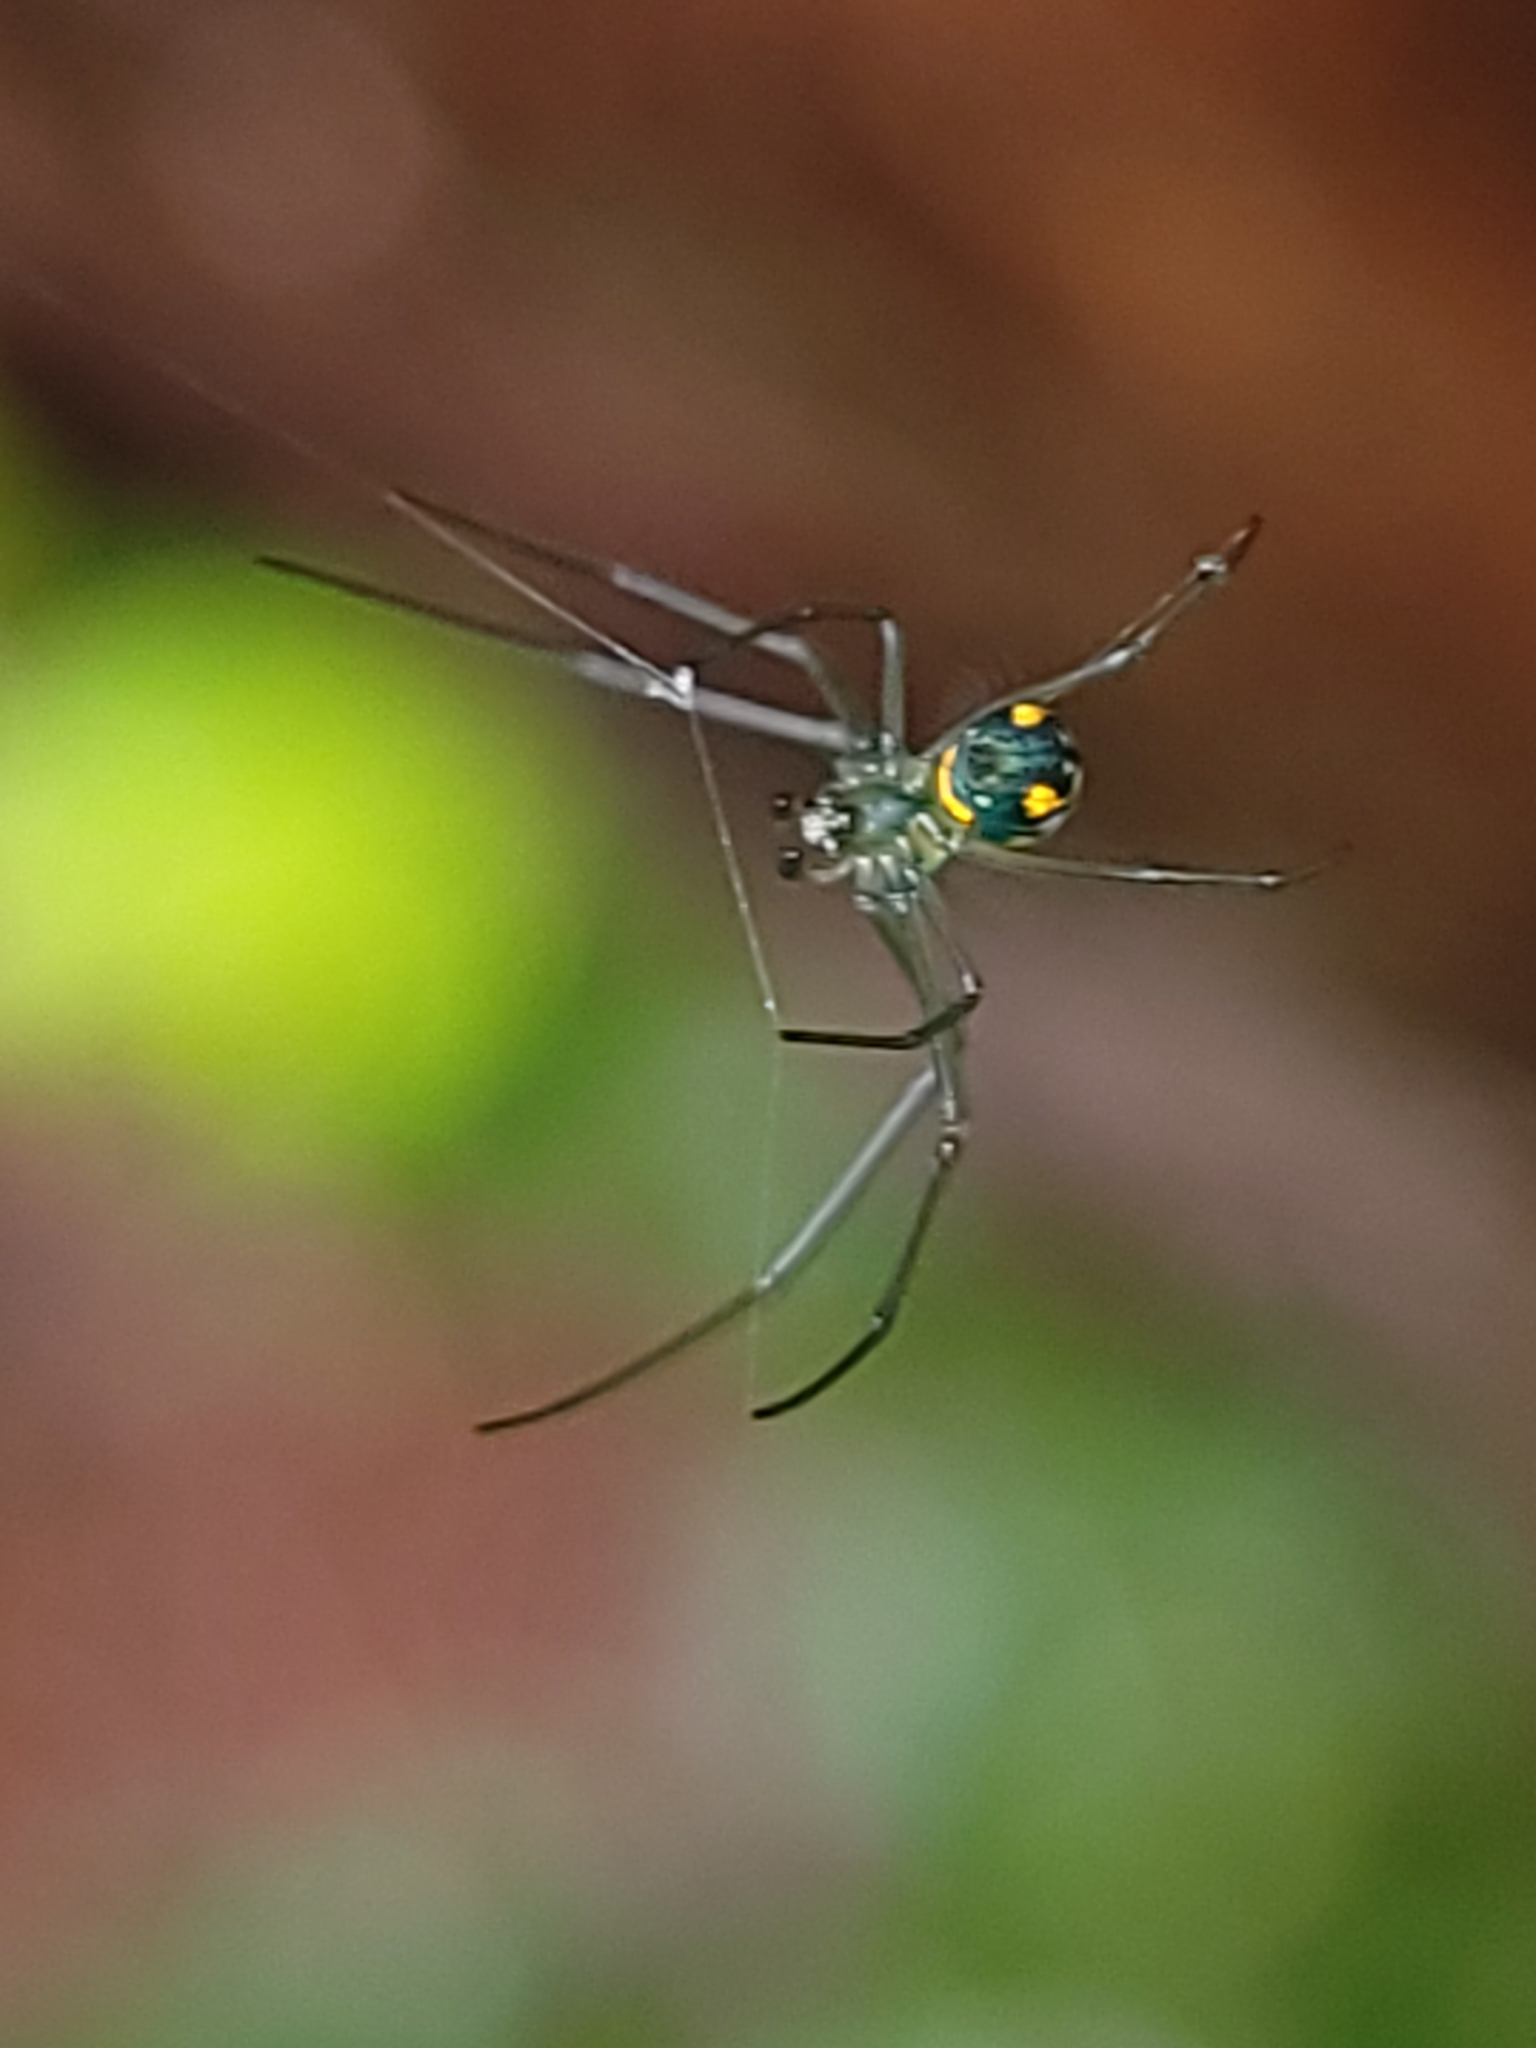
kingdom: Animalia
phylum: Arthropoda
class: Arachnida
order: Araneae
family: Tetragnathidae
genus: Leucauge
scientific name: Leucauge argyrobapta
